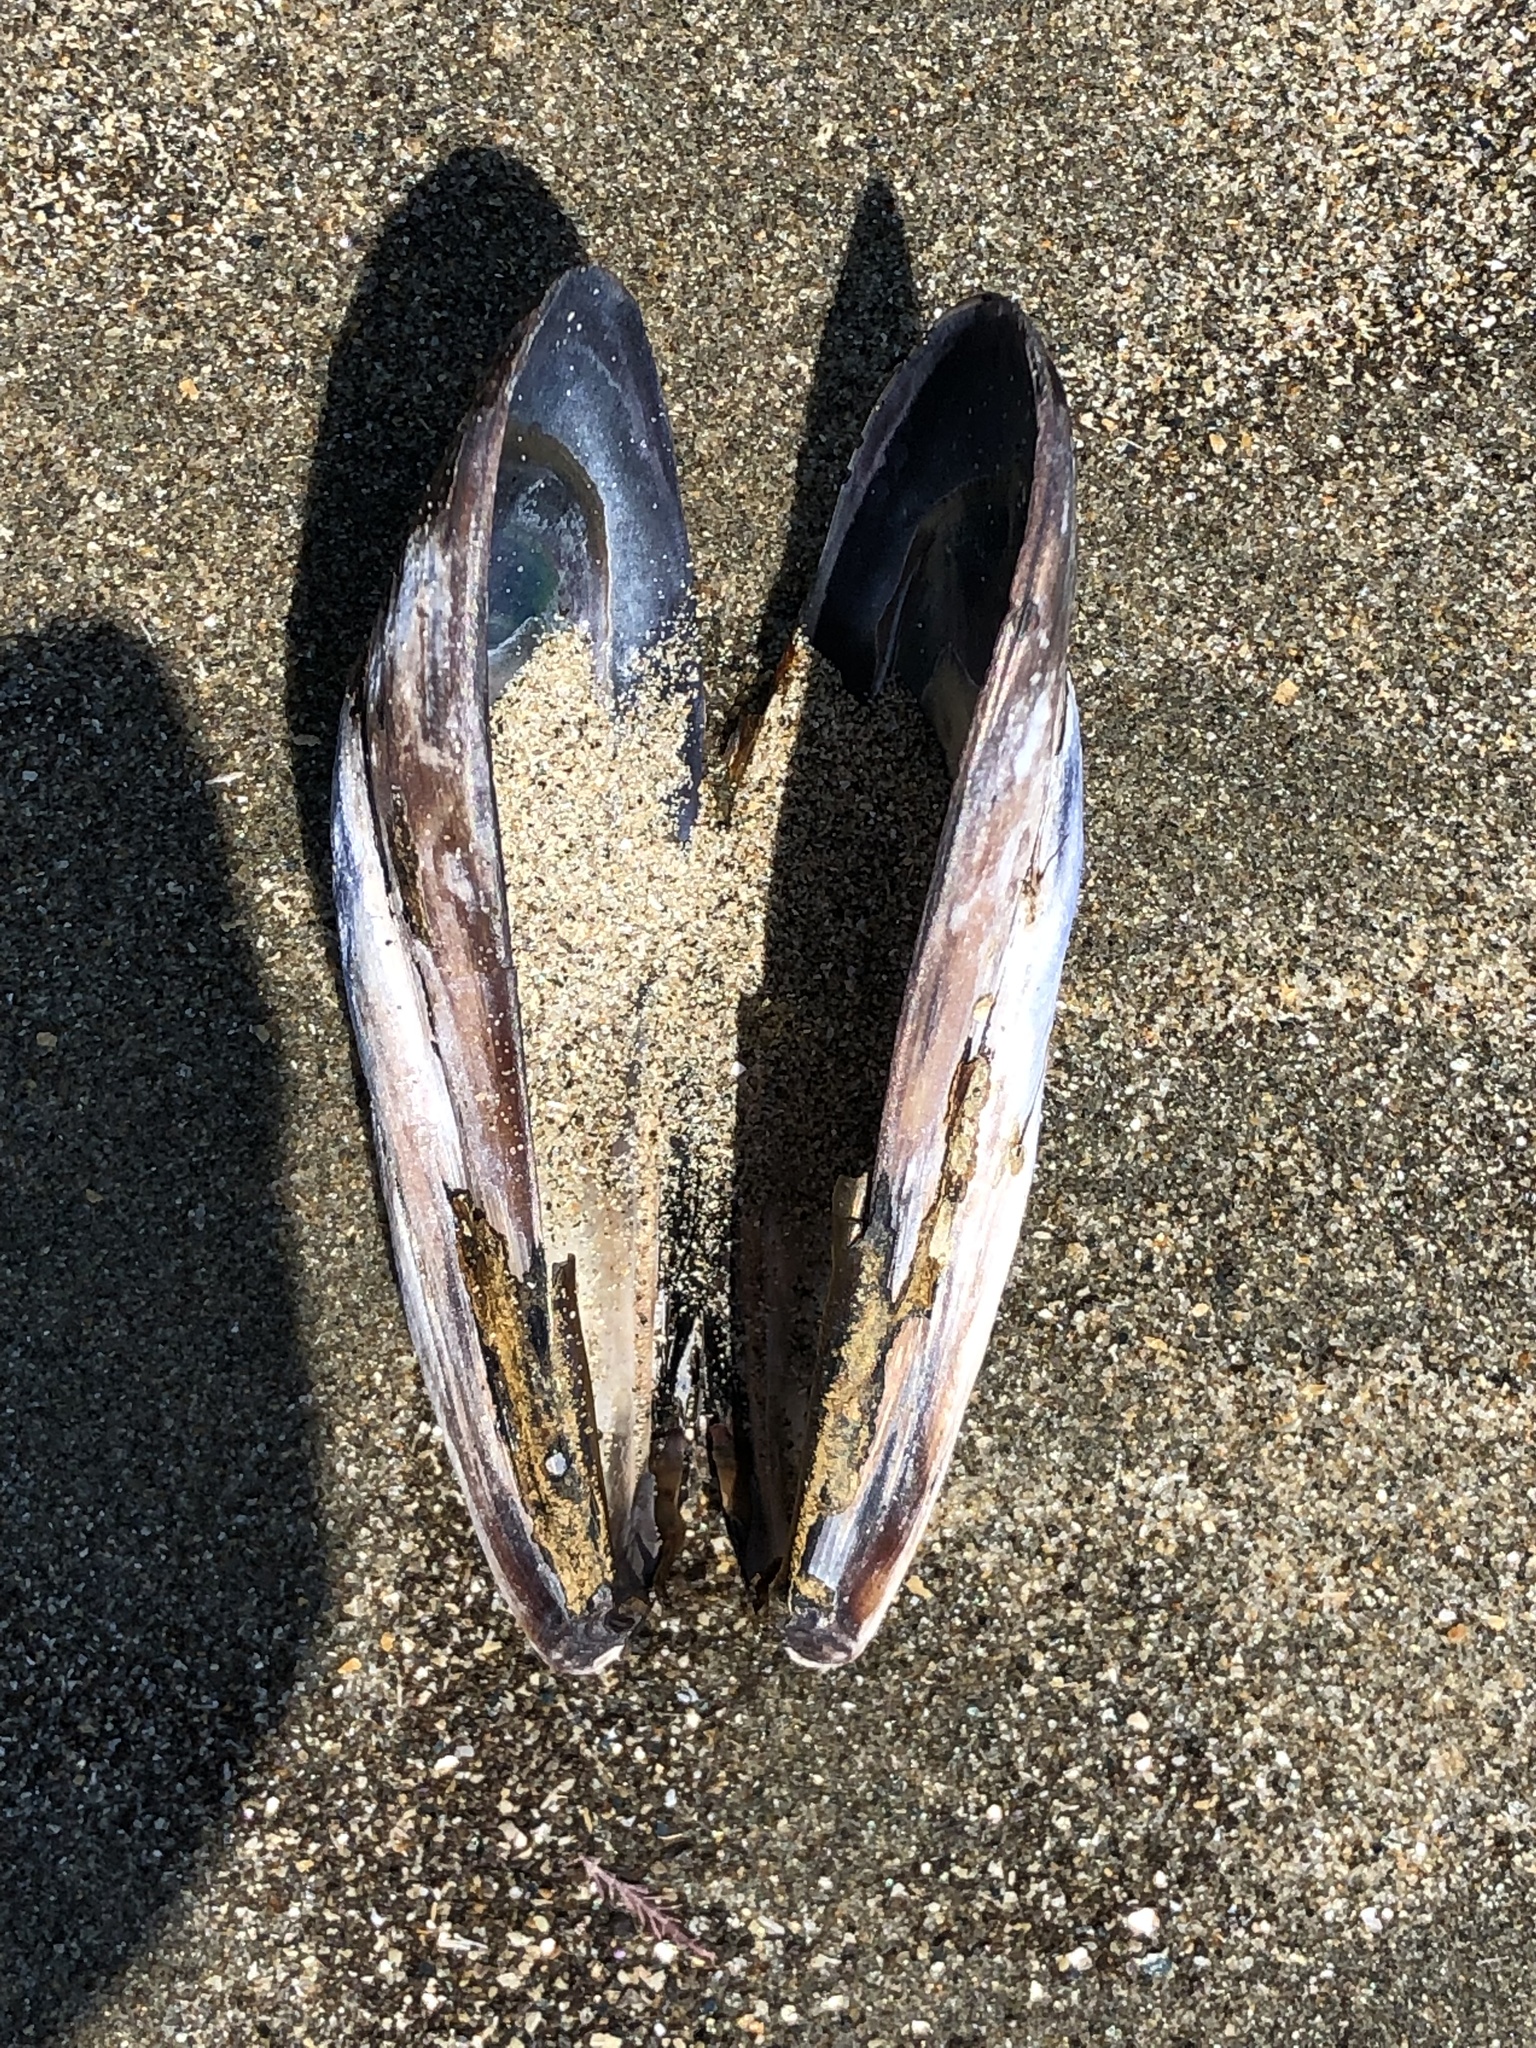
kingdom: Animalia
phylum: Mollusca
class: Bivalvia
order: Mytilida
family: Mytilidae
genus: Mytilus
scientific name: Mytilus californianus
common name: California mussel
